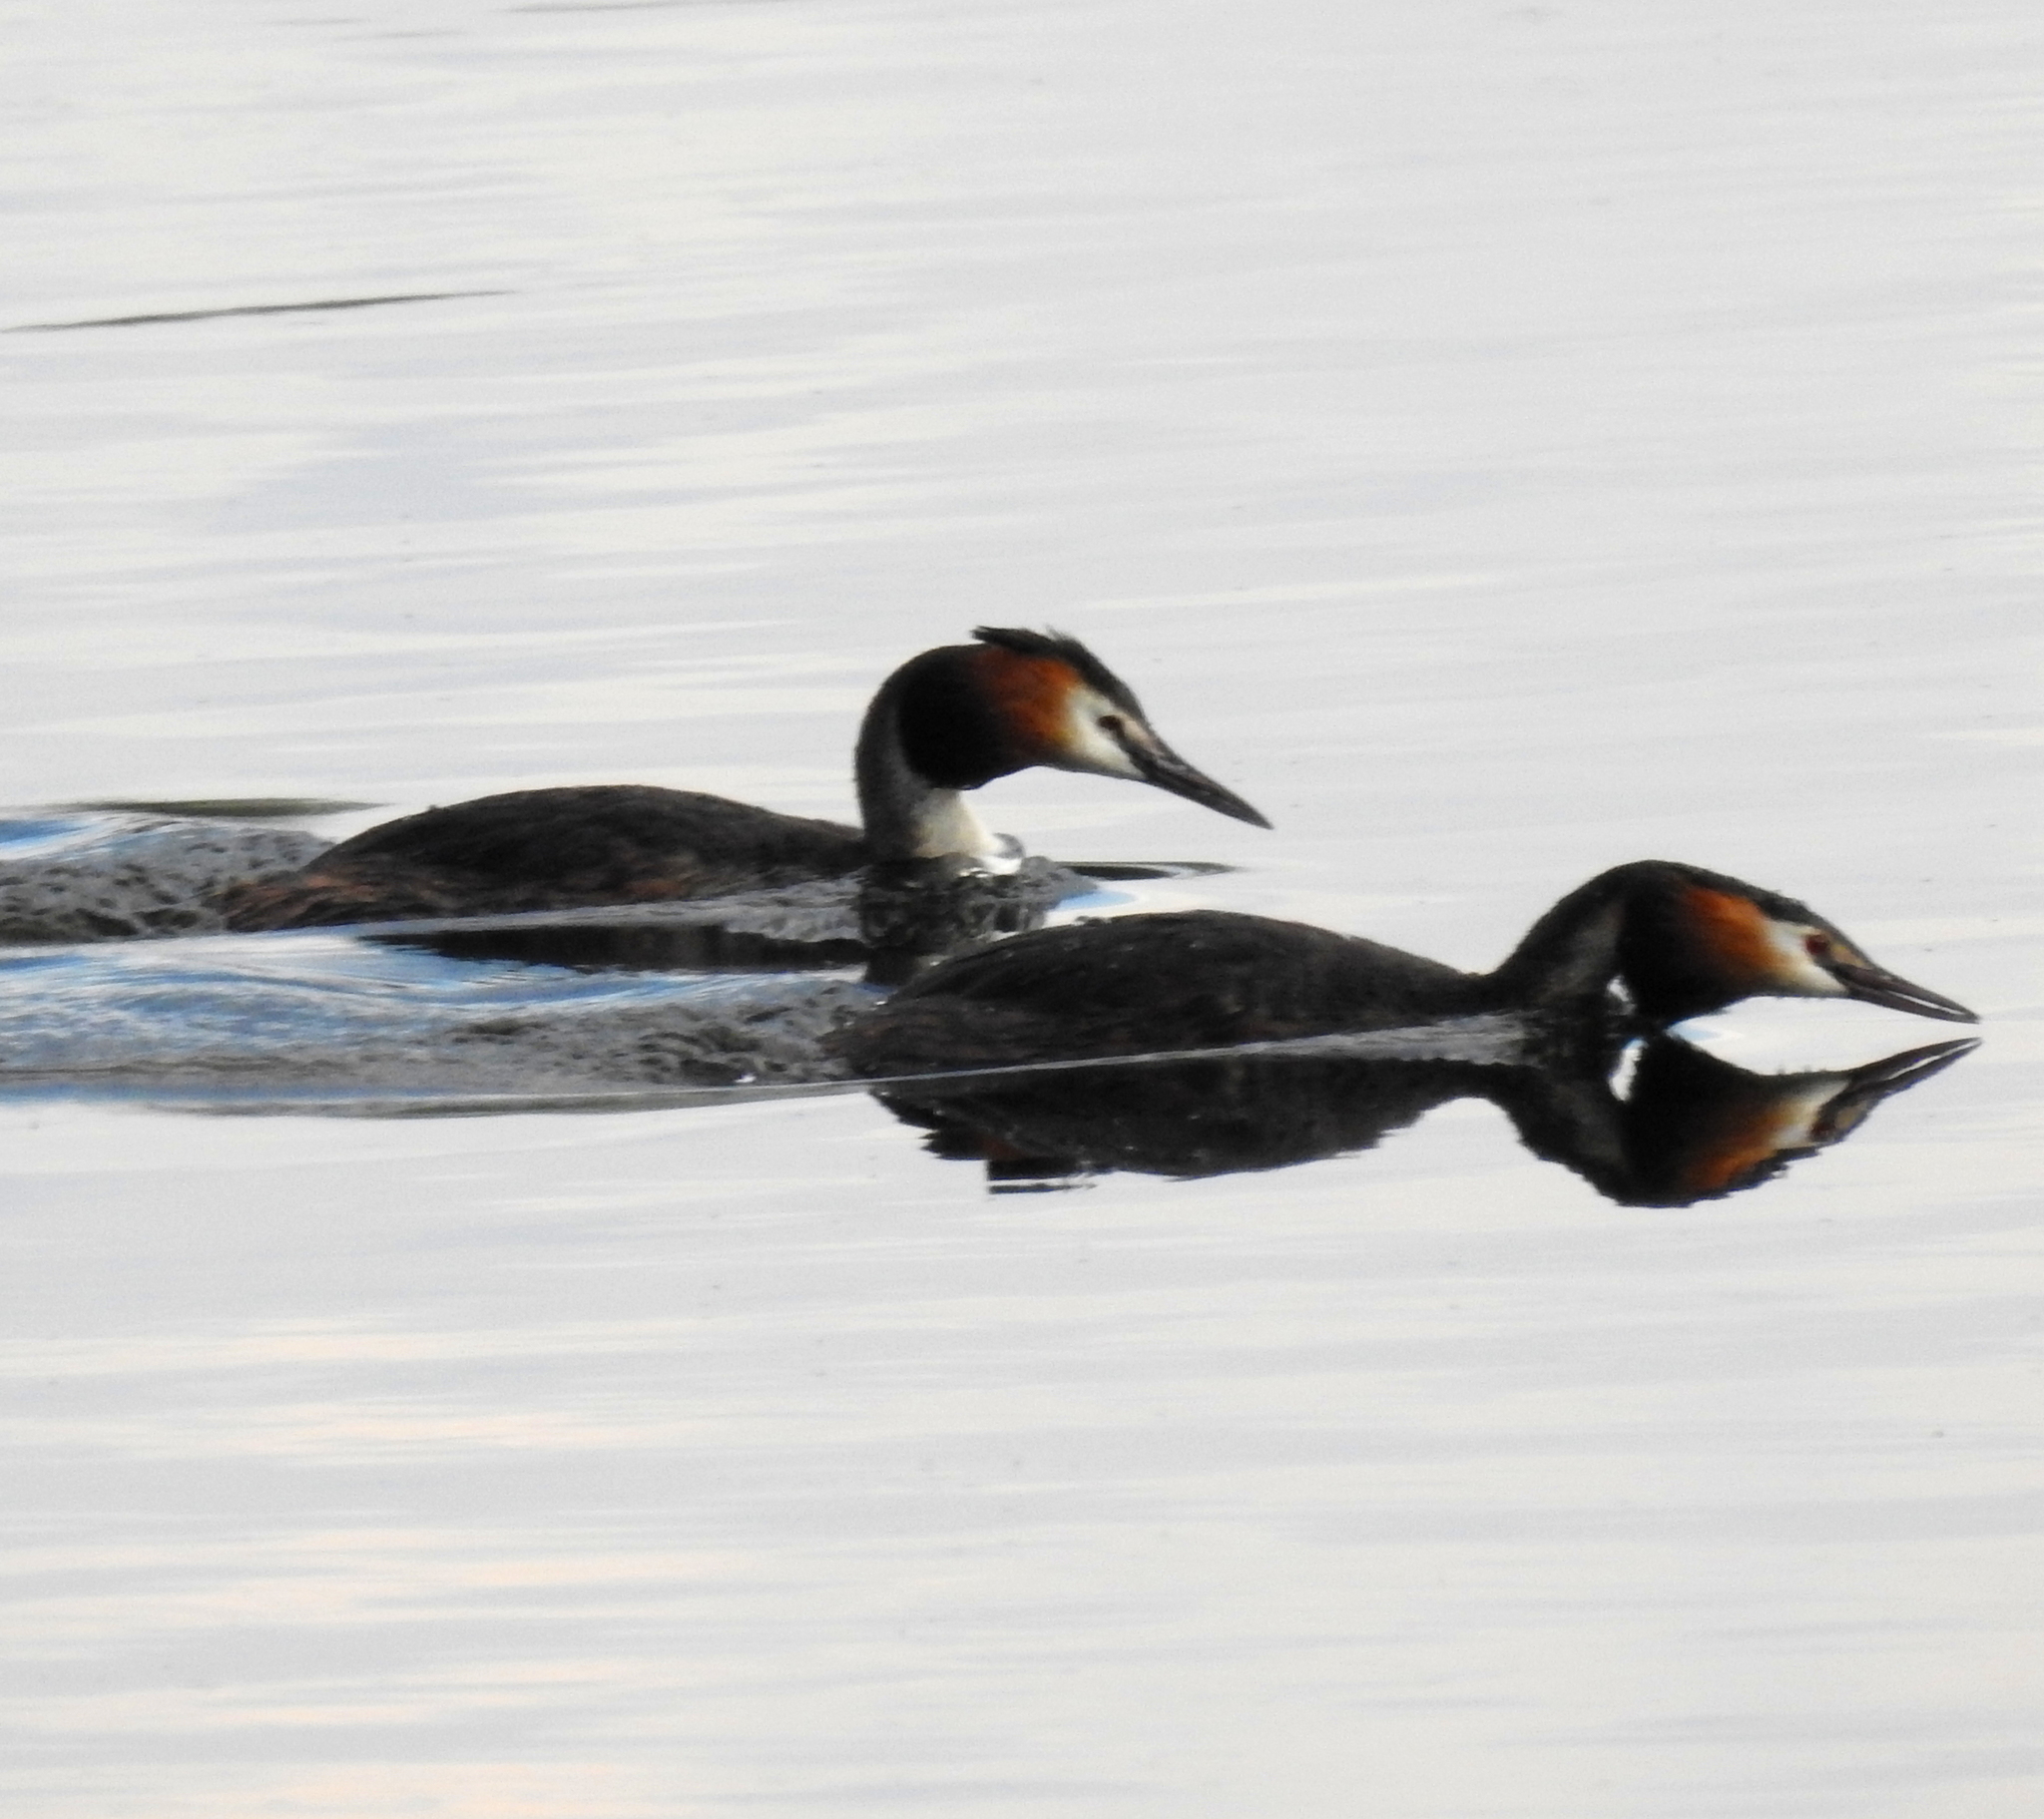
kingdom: Animalia
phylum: Chordata
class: Aves
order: Podicipediformes
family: Podicipedidae
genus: Podiceps
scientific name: Podiceps cristatus
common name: Great crested grebe
